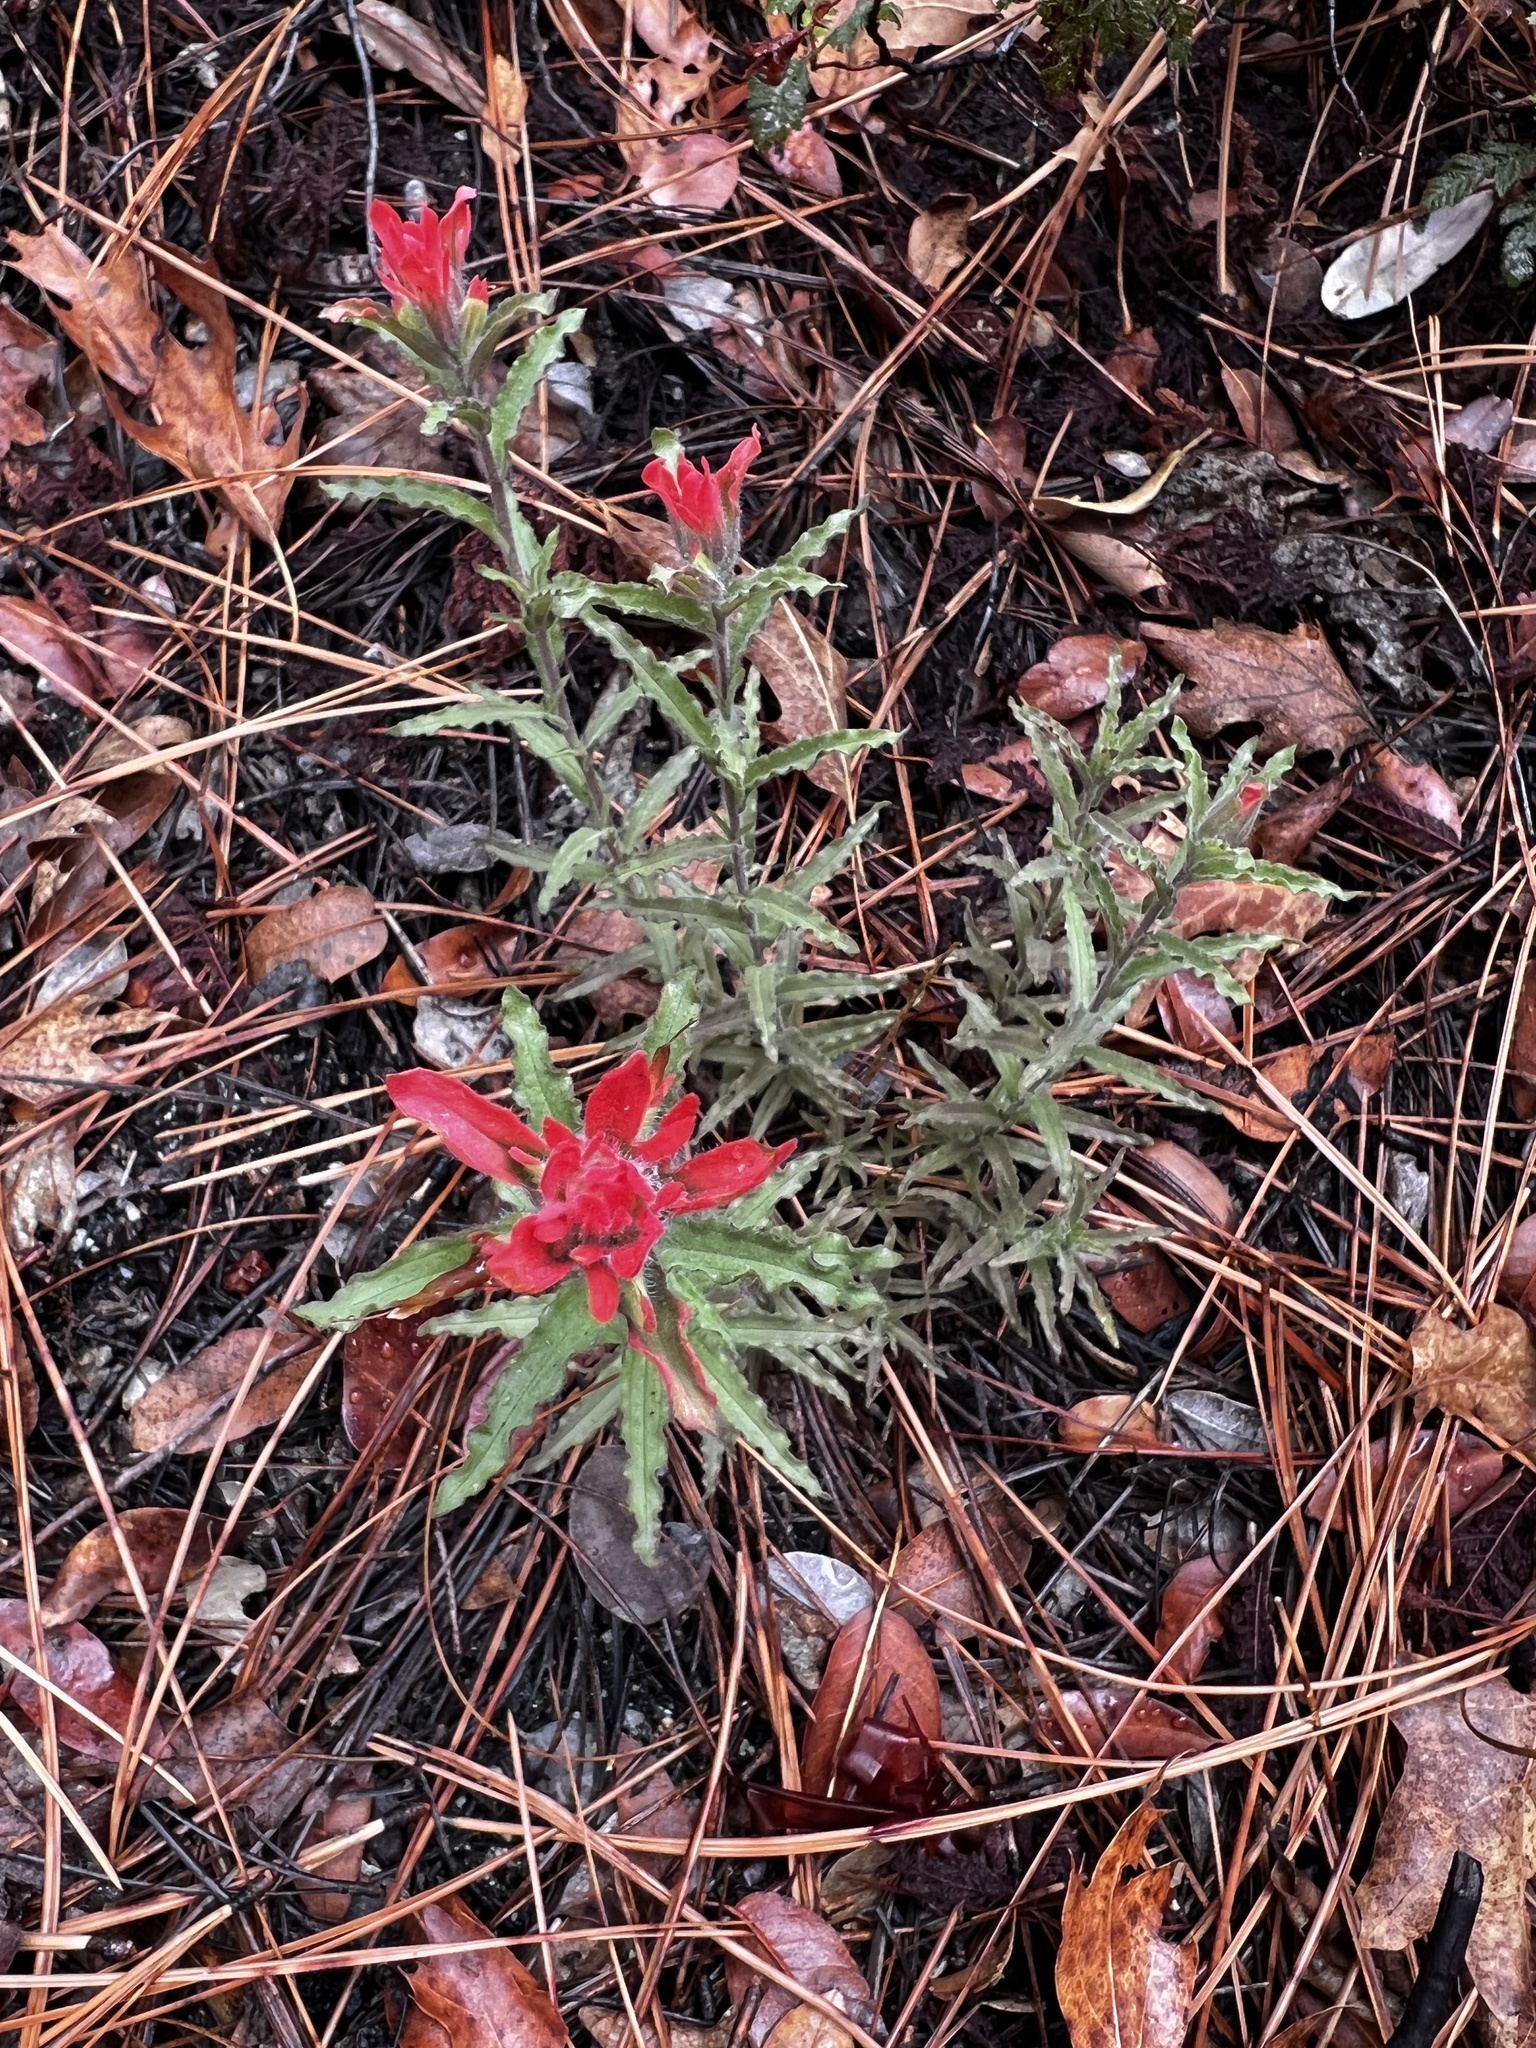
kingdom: Plantae
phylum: Tracheophyta
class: Magnoliopsida
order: Lamiales
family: Orobanchaceae
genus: Castilleja
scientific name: Castilleja applegatei
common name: Wavy-leaf paintbrush
